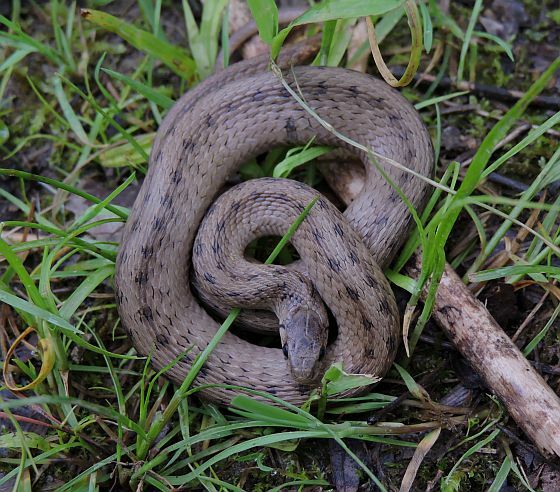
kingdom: Animalia
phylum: Chordata
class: Squamata
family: Colubridae
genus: Storeria
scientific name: Storeria dekayi
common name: (dekay’s) brown snake
